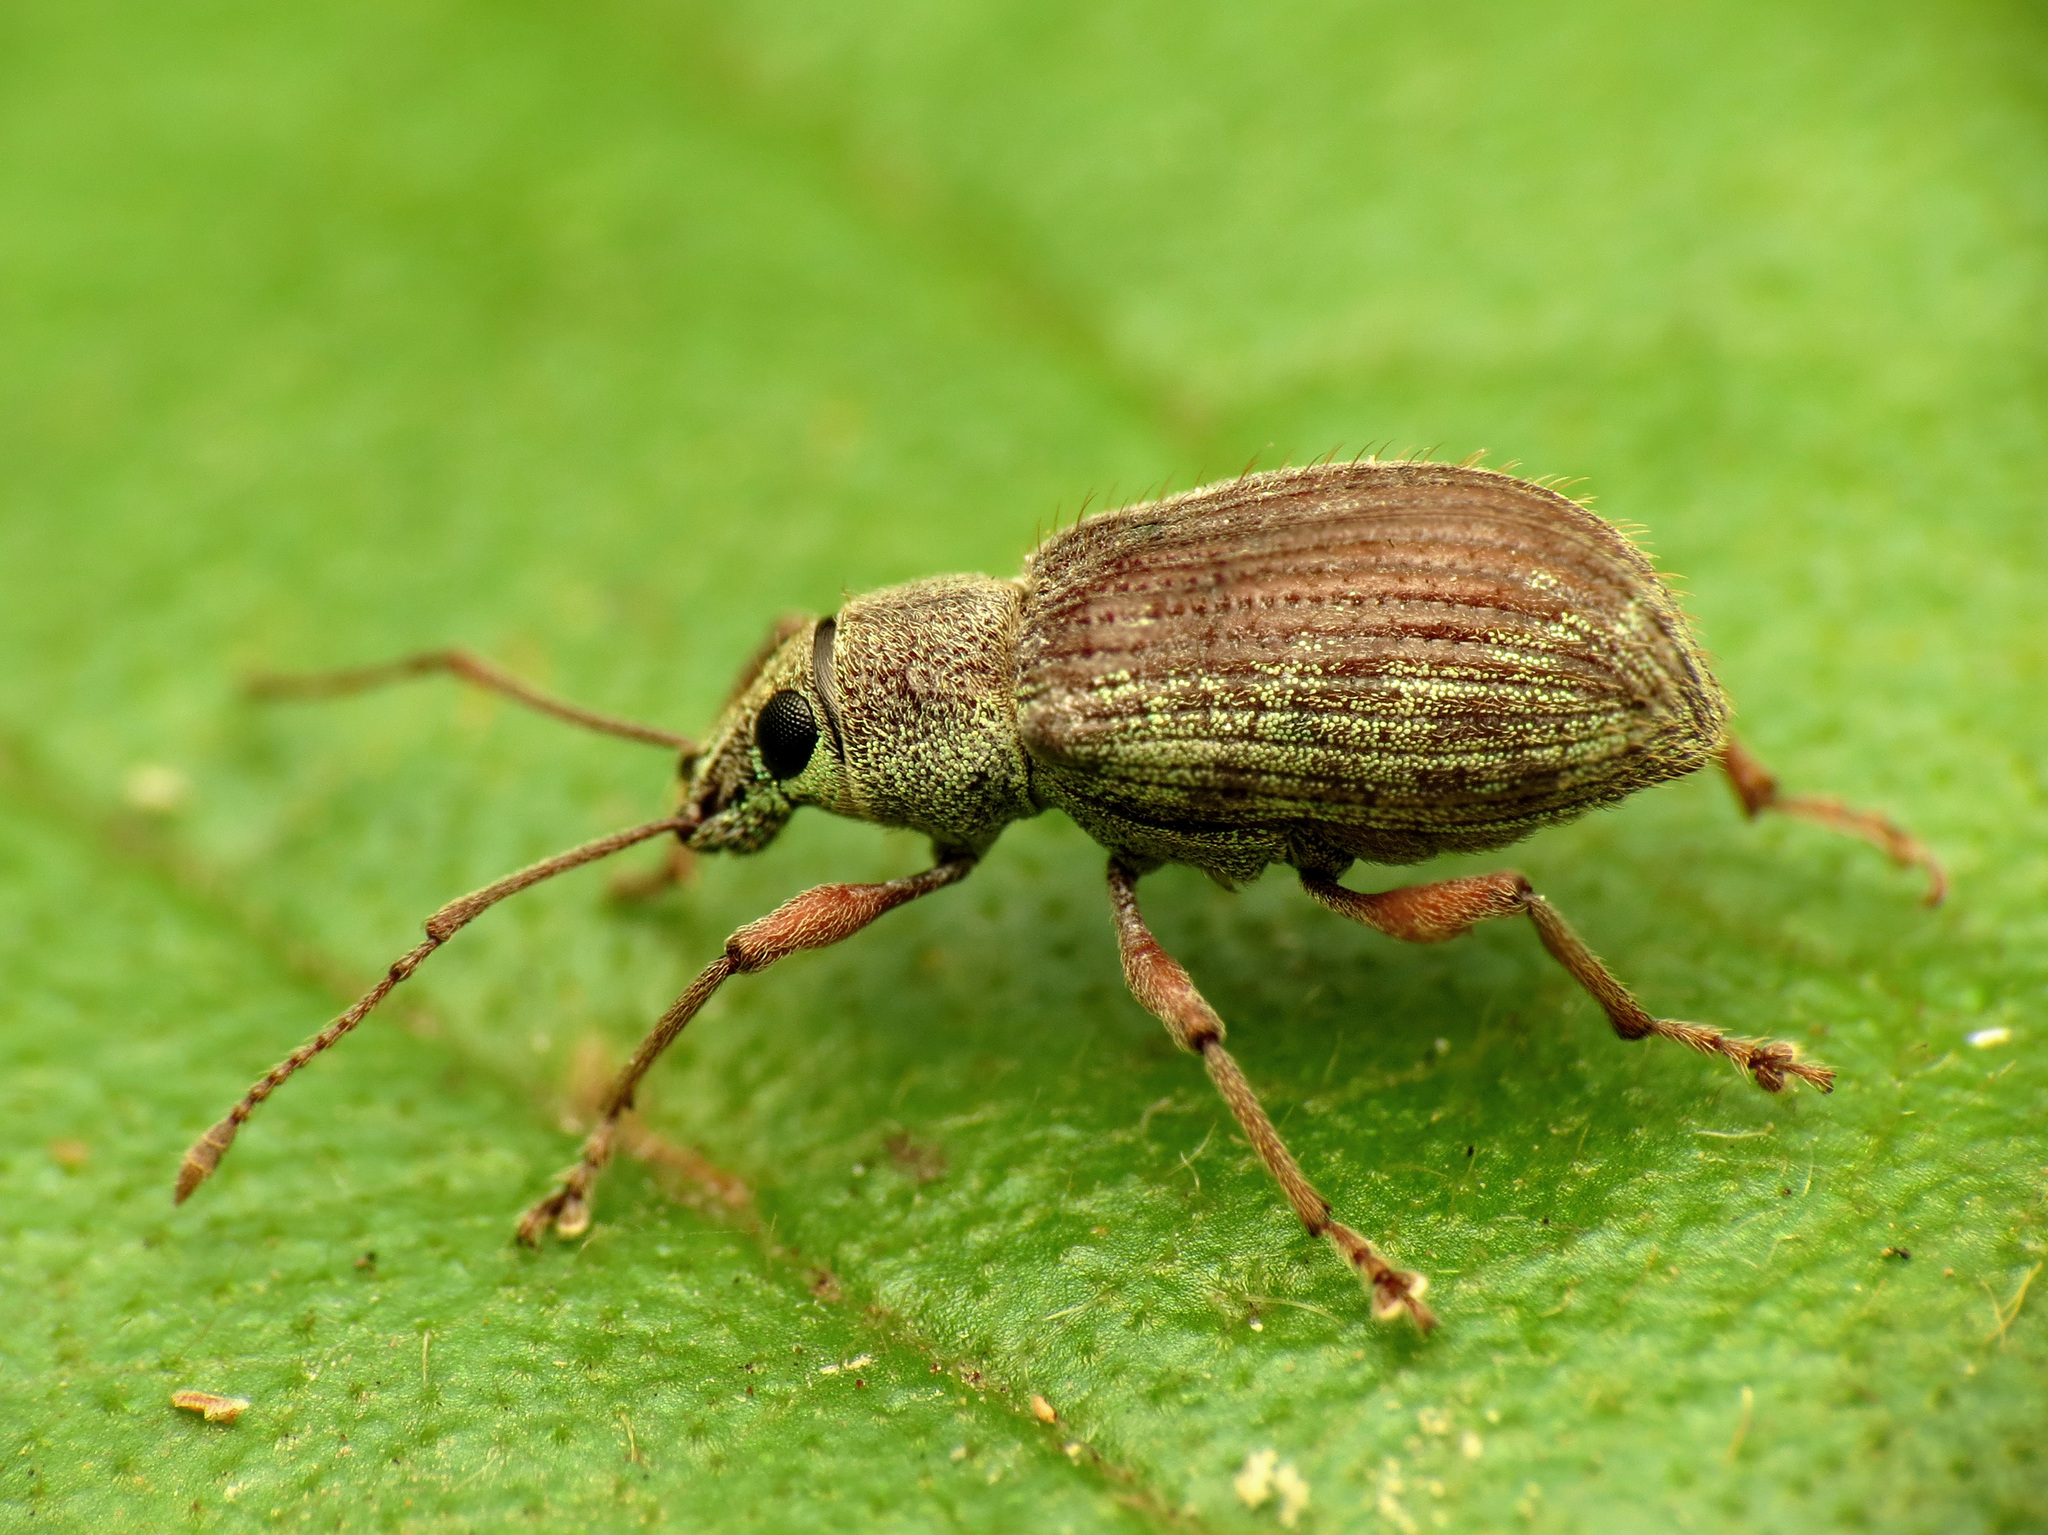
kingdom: Animalia
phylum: Arthropoda
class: Insecta
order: Coleoptera
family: Curculionidae
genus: Cyrtepistomus
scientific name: Cyrtepistomus castaneus
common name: Weevil
